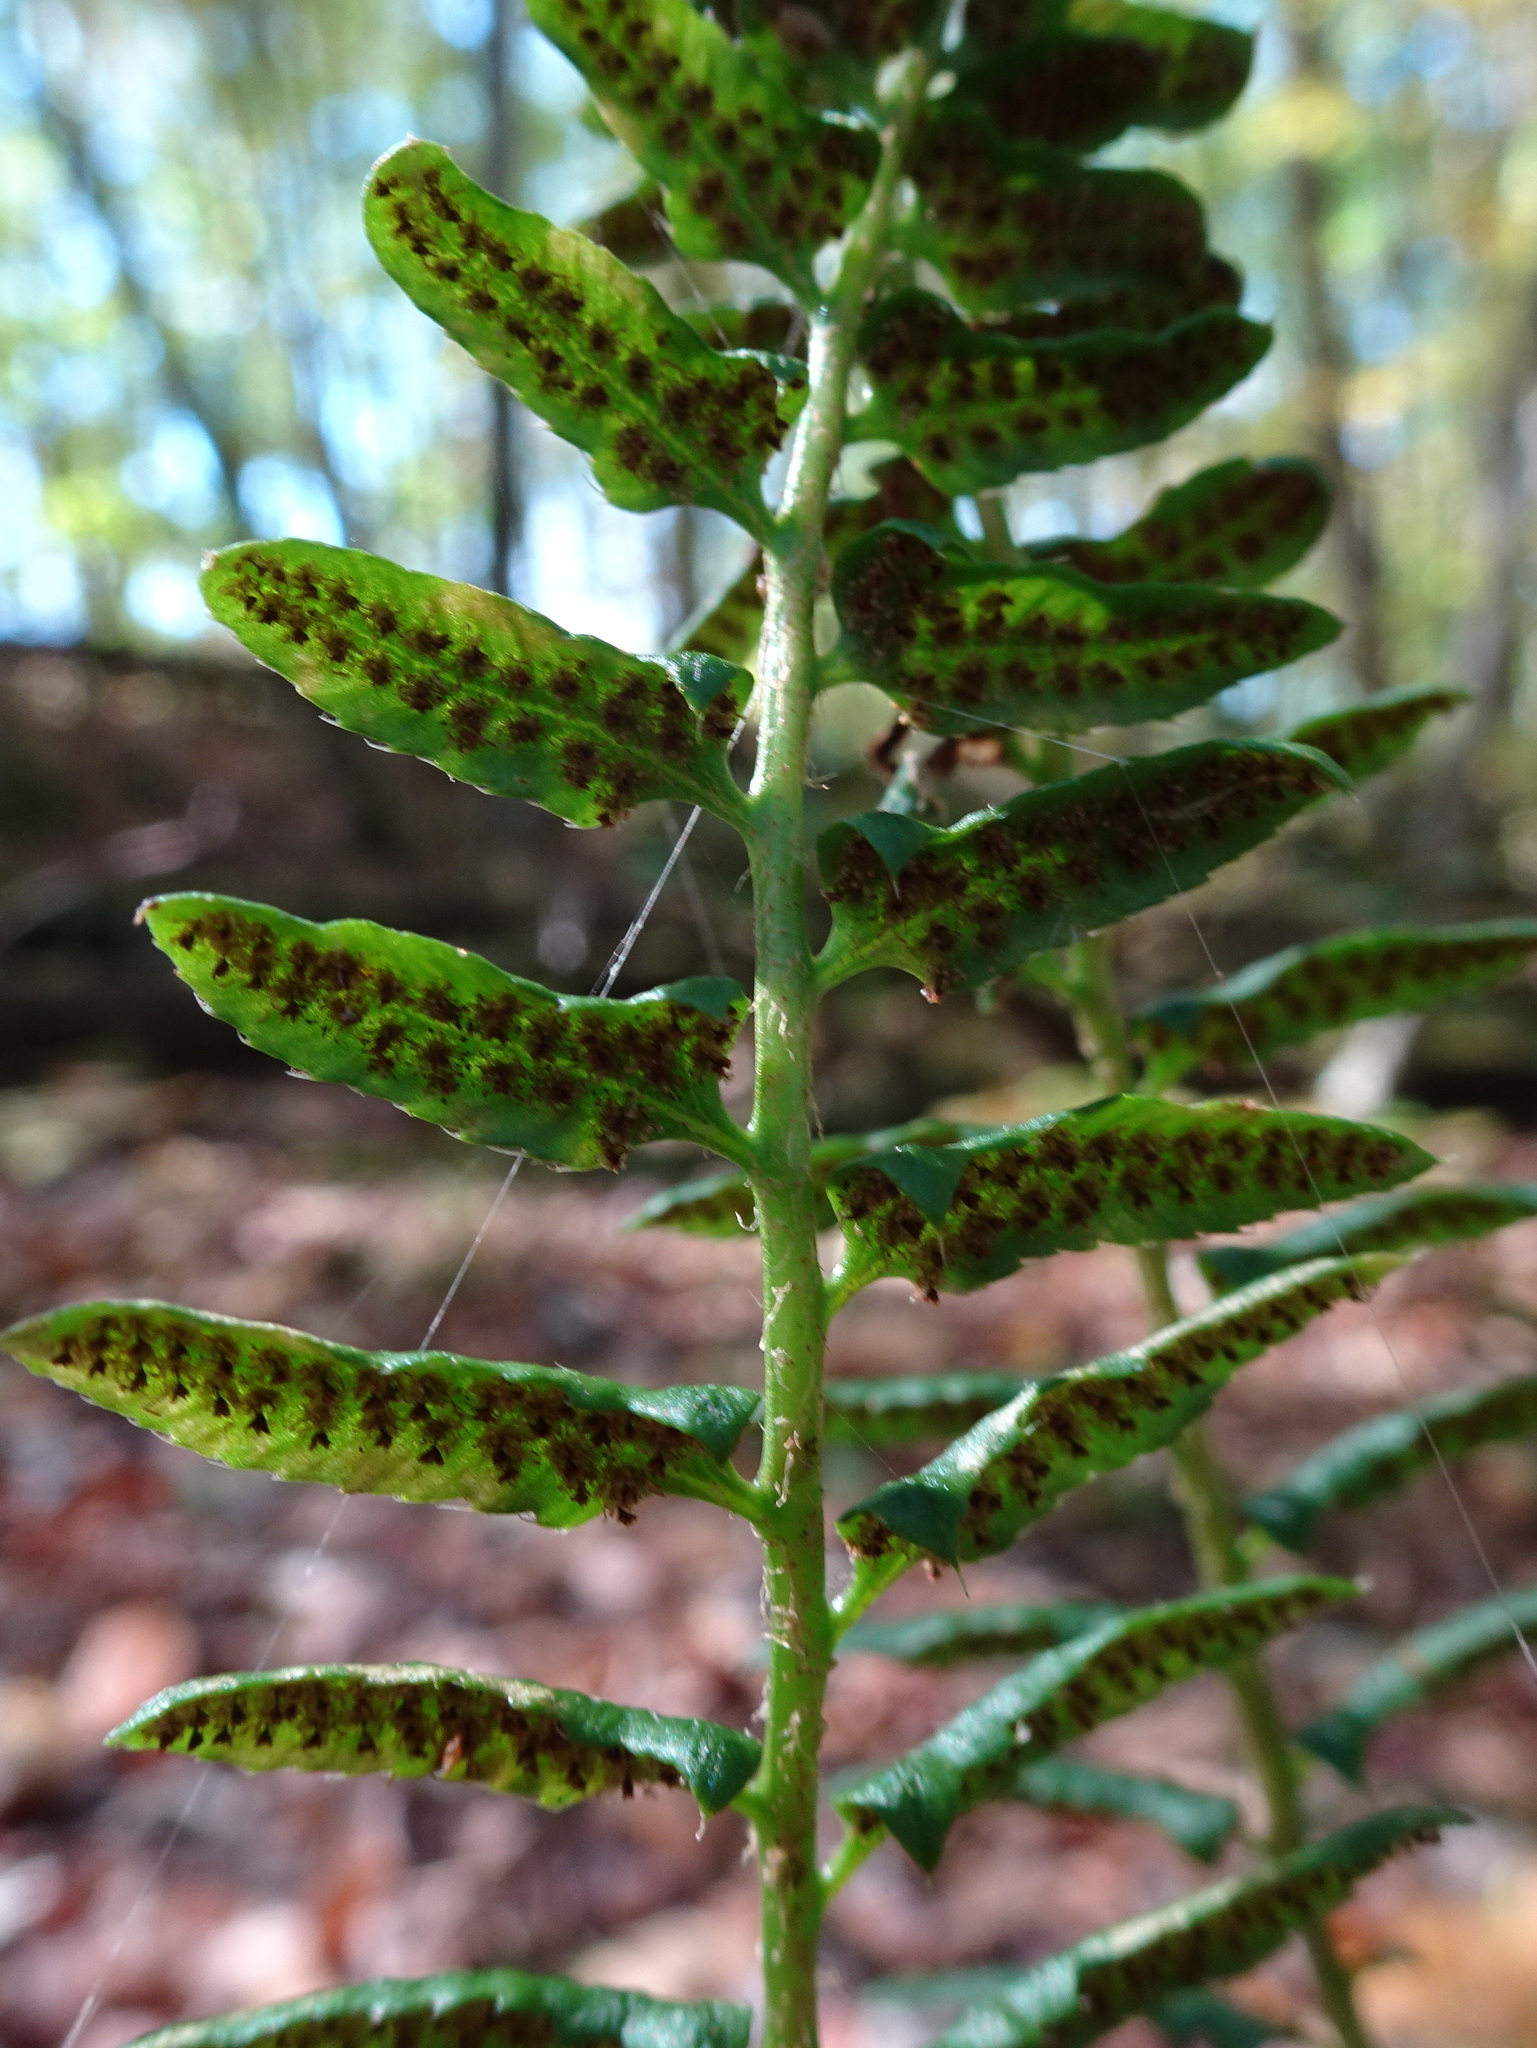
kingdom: Plantae
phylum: Tracheophyta
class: Polypodiopsida
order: Polypodiales
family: Dryopteridaceae
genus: Polystichum
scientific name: Polystichum acrostichoides
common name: Christmas fern
